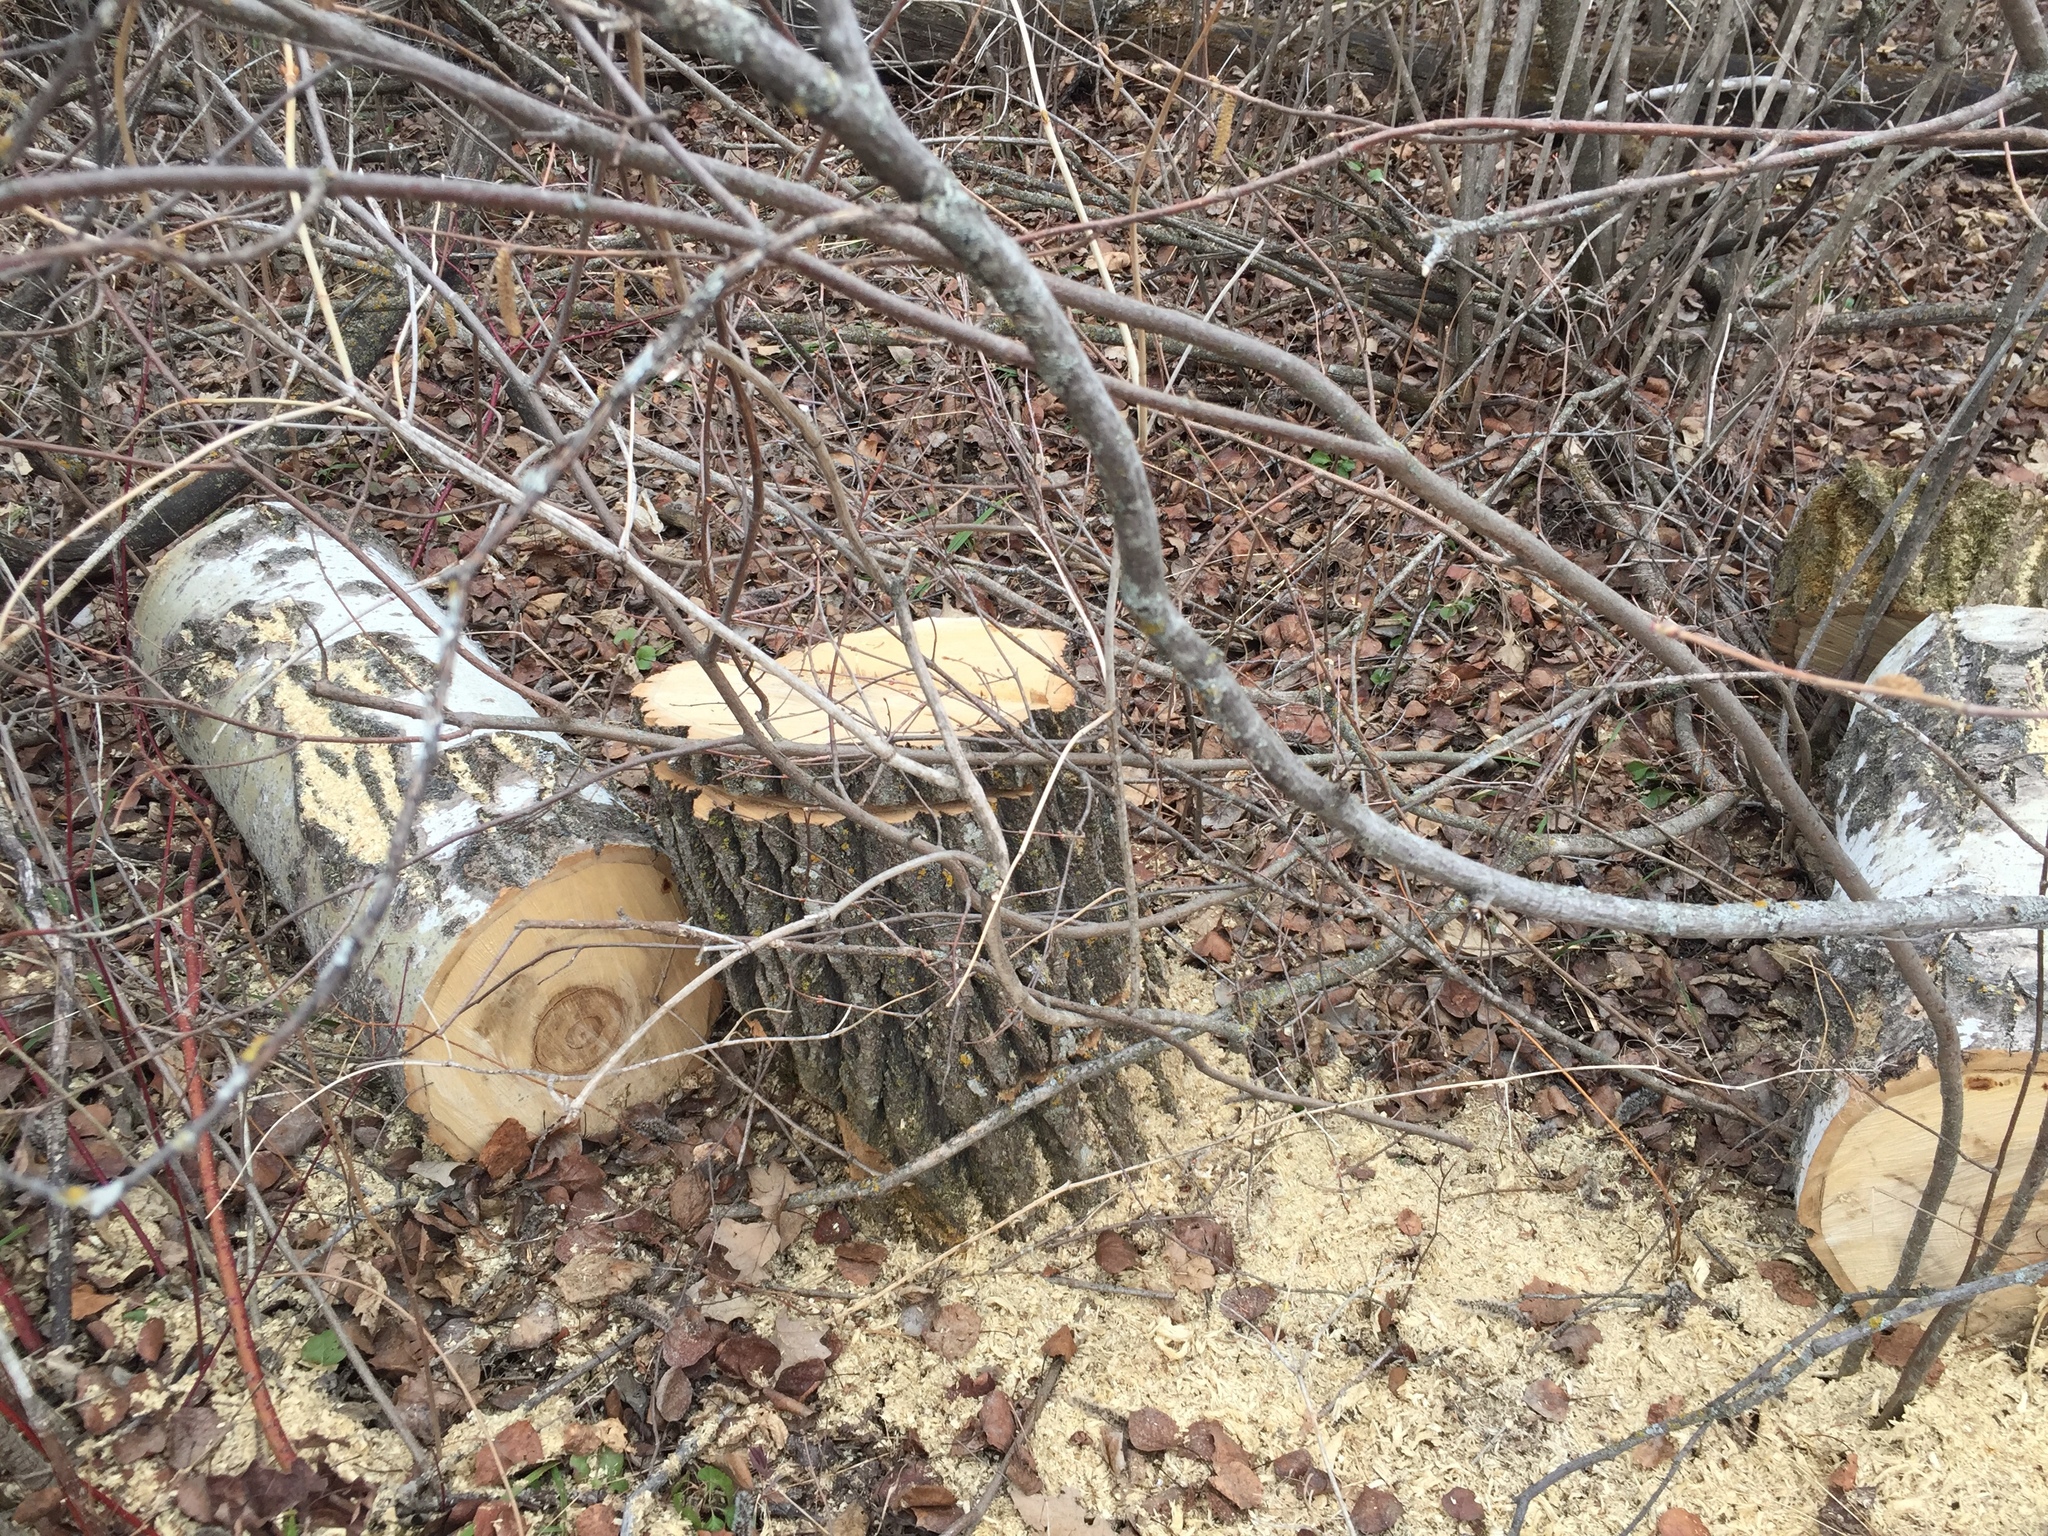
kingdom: Plantae
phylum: Tracheophyta
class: Magnoliopsida
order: Malpighiales
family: Salicaceae
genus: Populus
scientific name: Populus tremuloides
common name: Quaking aspen
